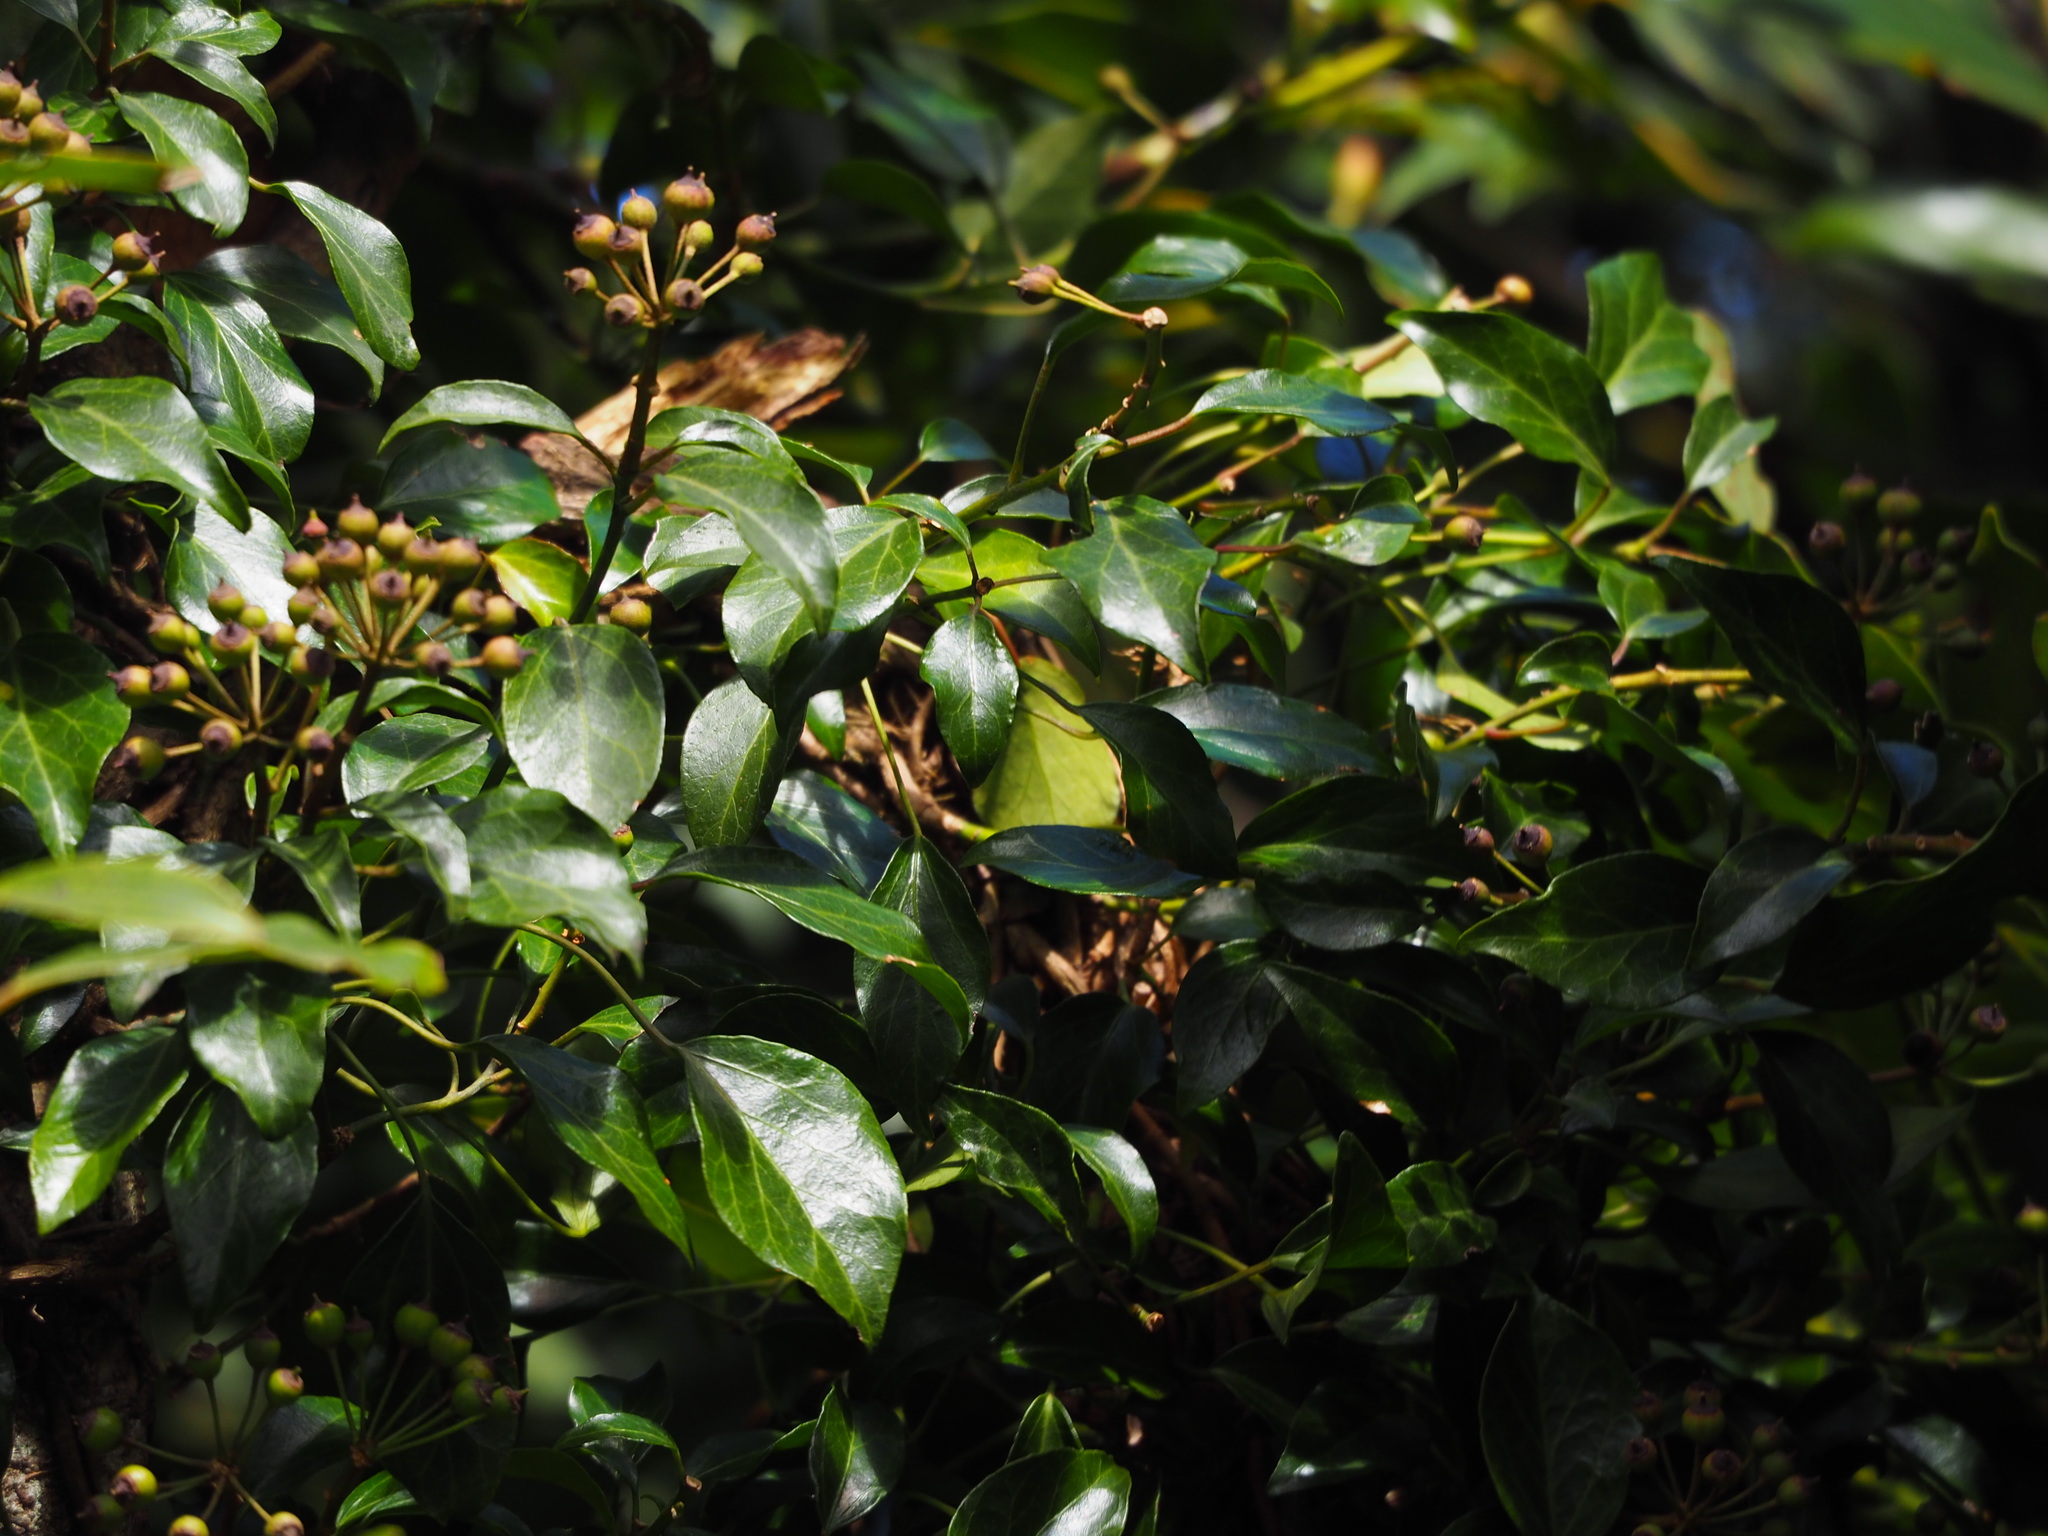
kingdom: Plantae
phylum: Tracheophyta
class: Magnoliopsida
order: Apiales
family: Araliaceae
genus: Hedera
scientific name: Hedera rhombea
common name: Japanese ivy
